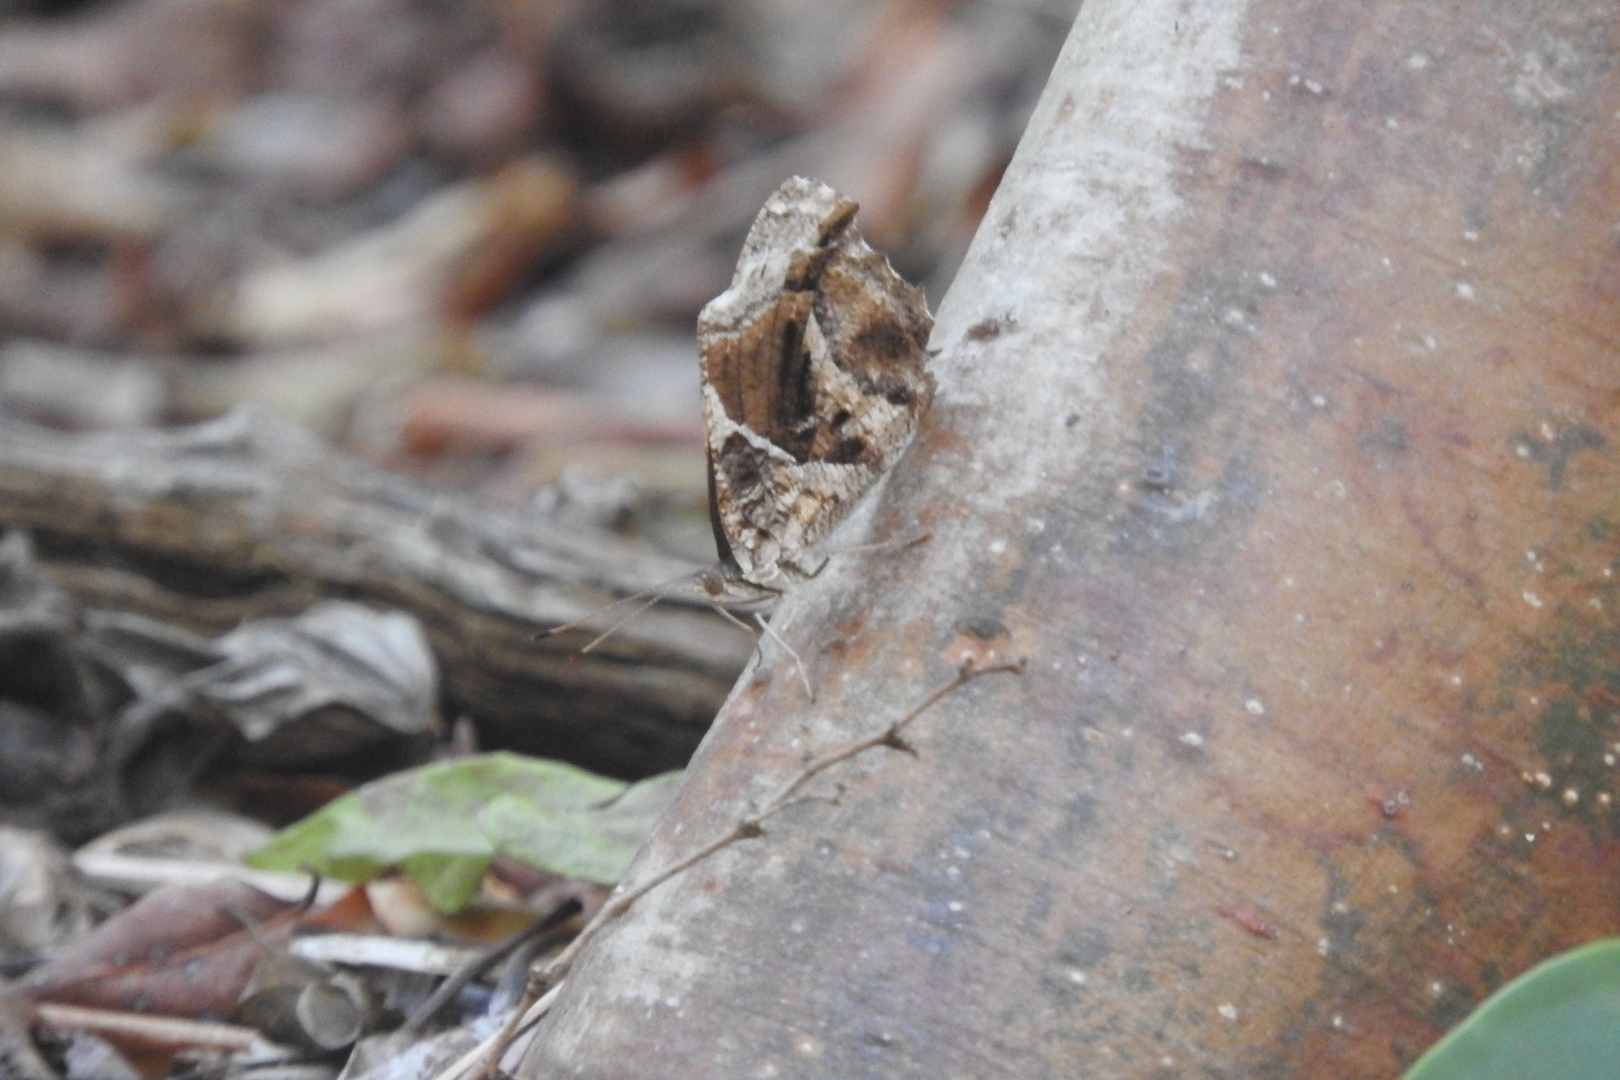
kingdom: Animalia
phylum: Arthropoda
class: Insecta
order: Lepidoptera
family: Nymphalidae
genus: Myscelia
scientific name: Myscelia ethusa
